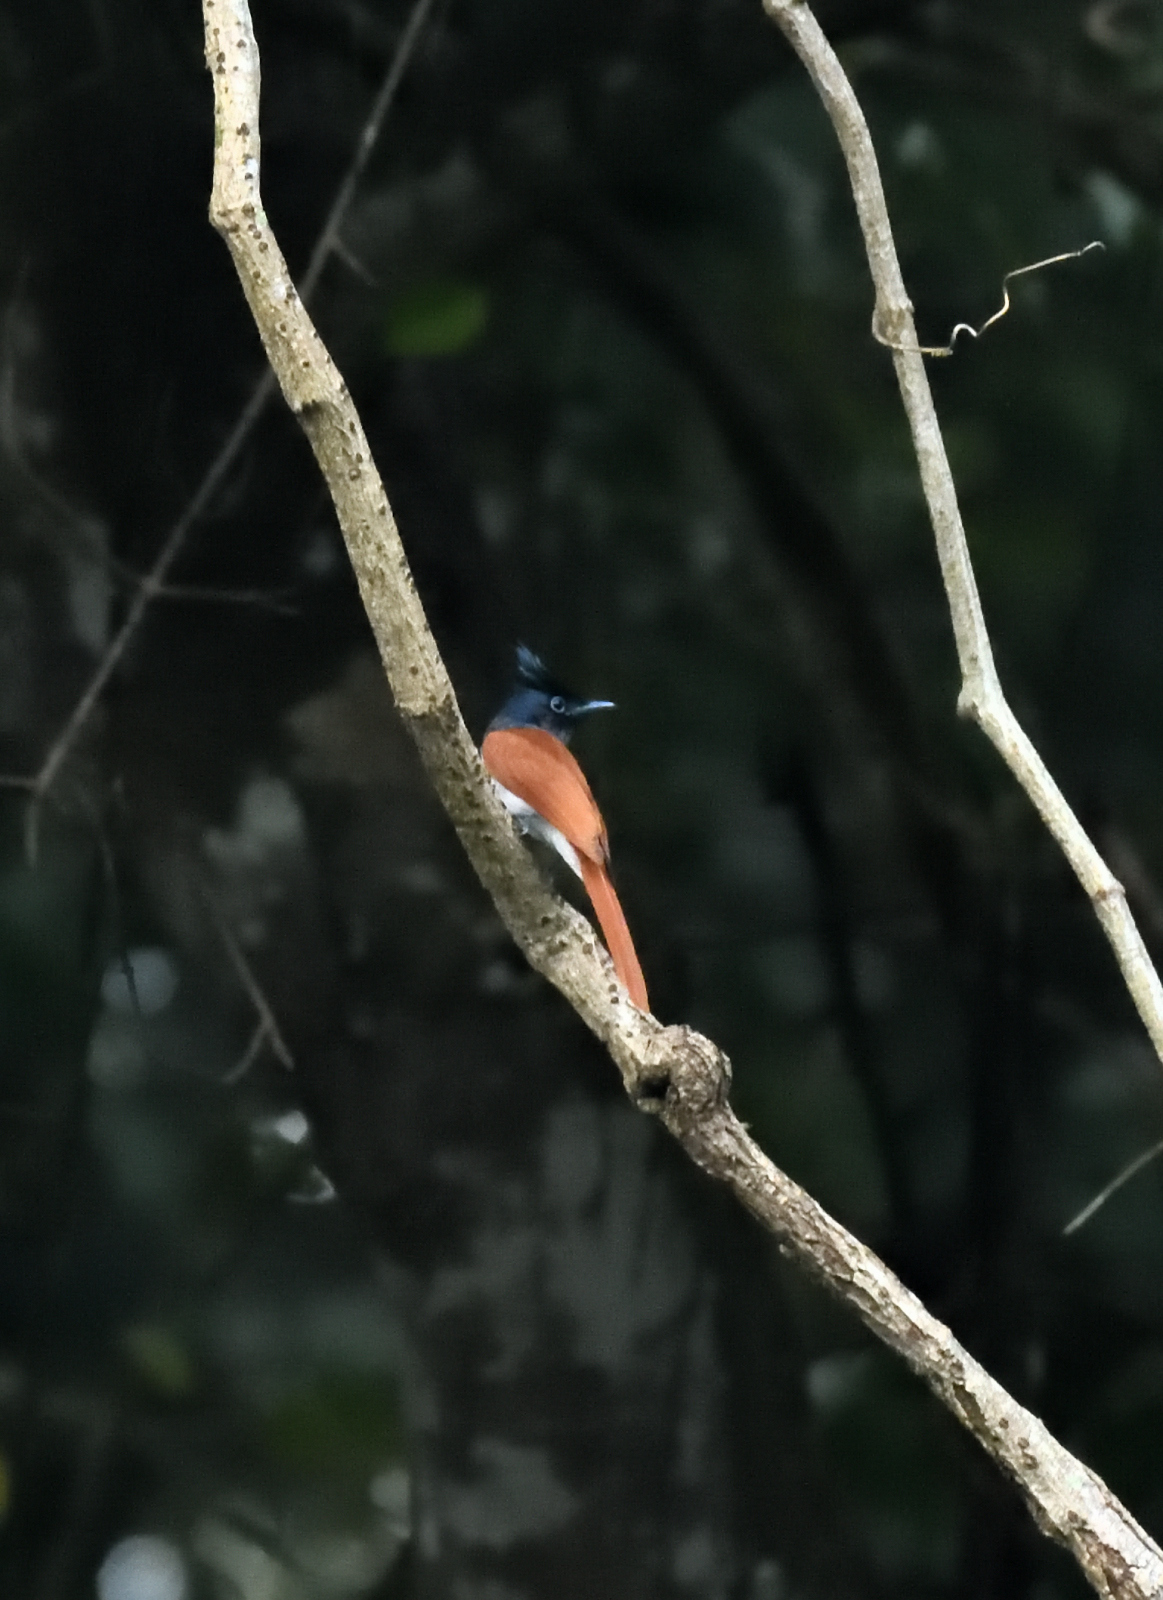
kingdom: Animalia
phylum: Chordata
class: Aves
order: Passeriformes
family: Monarchidae
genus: Terpsiphone
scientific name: Terpsiphone paradisi
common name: Indian paradise flycatcher
